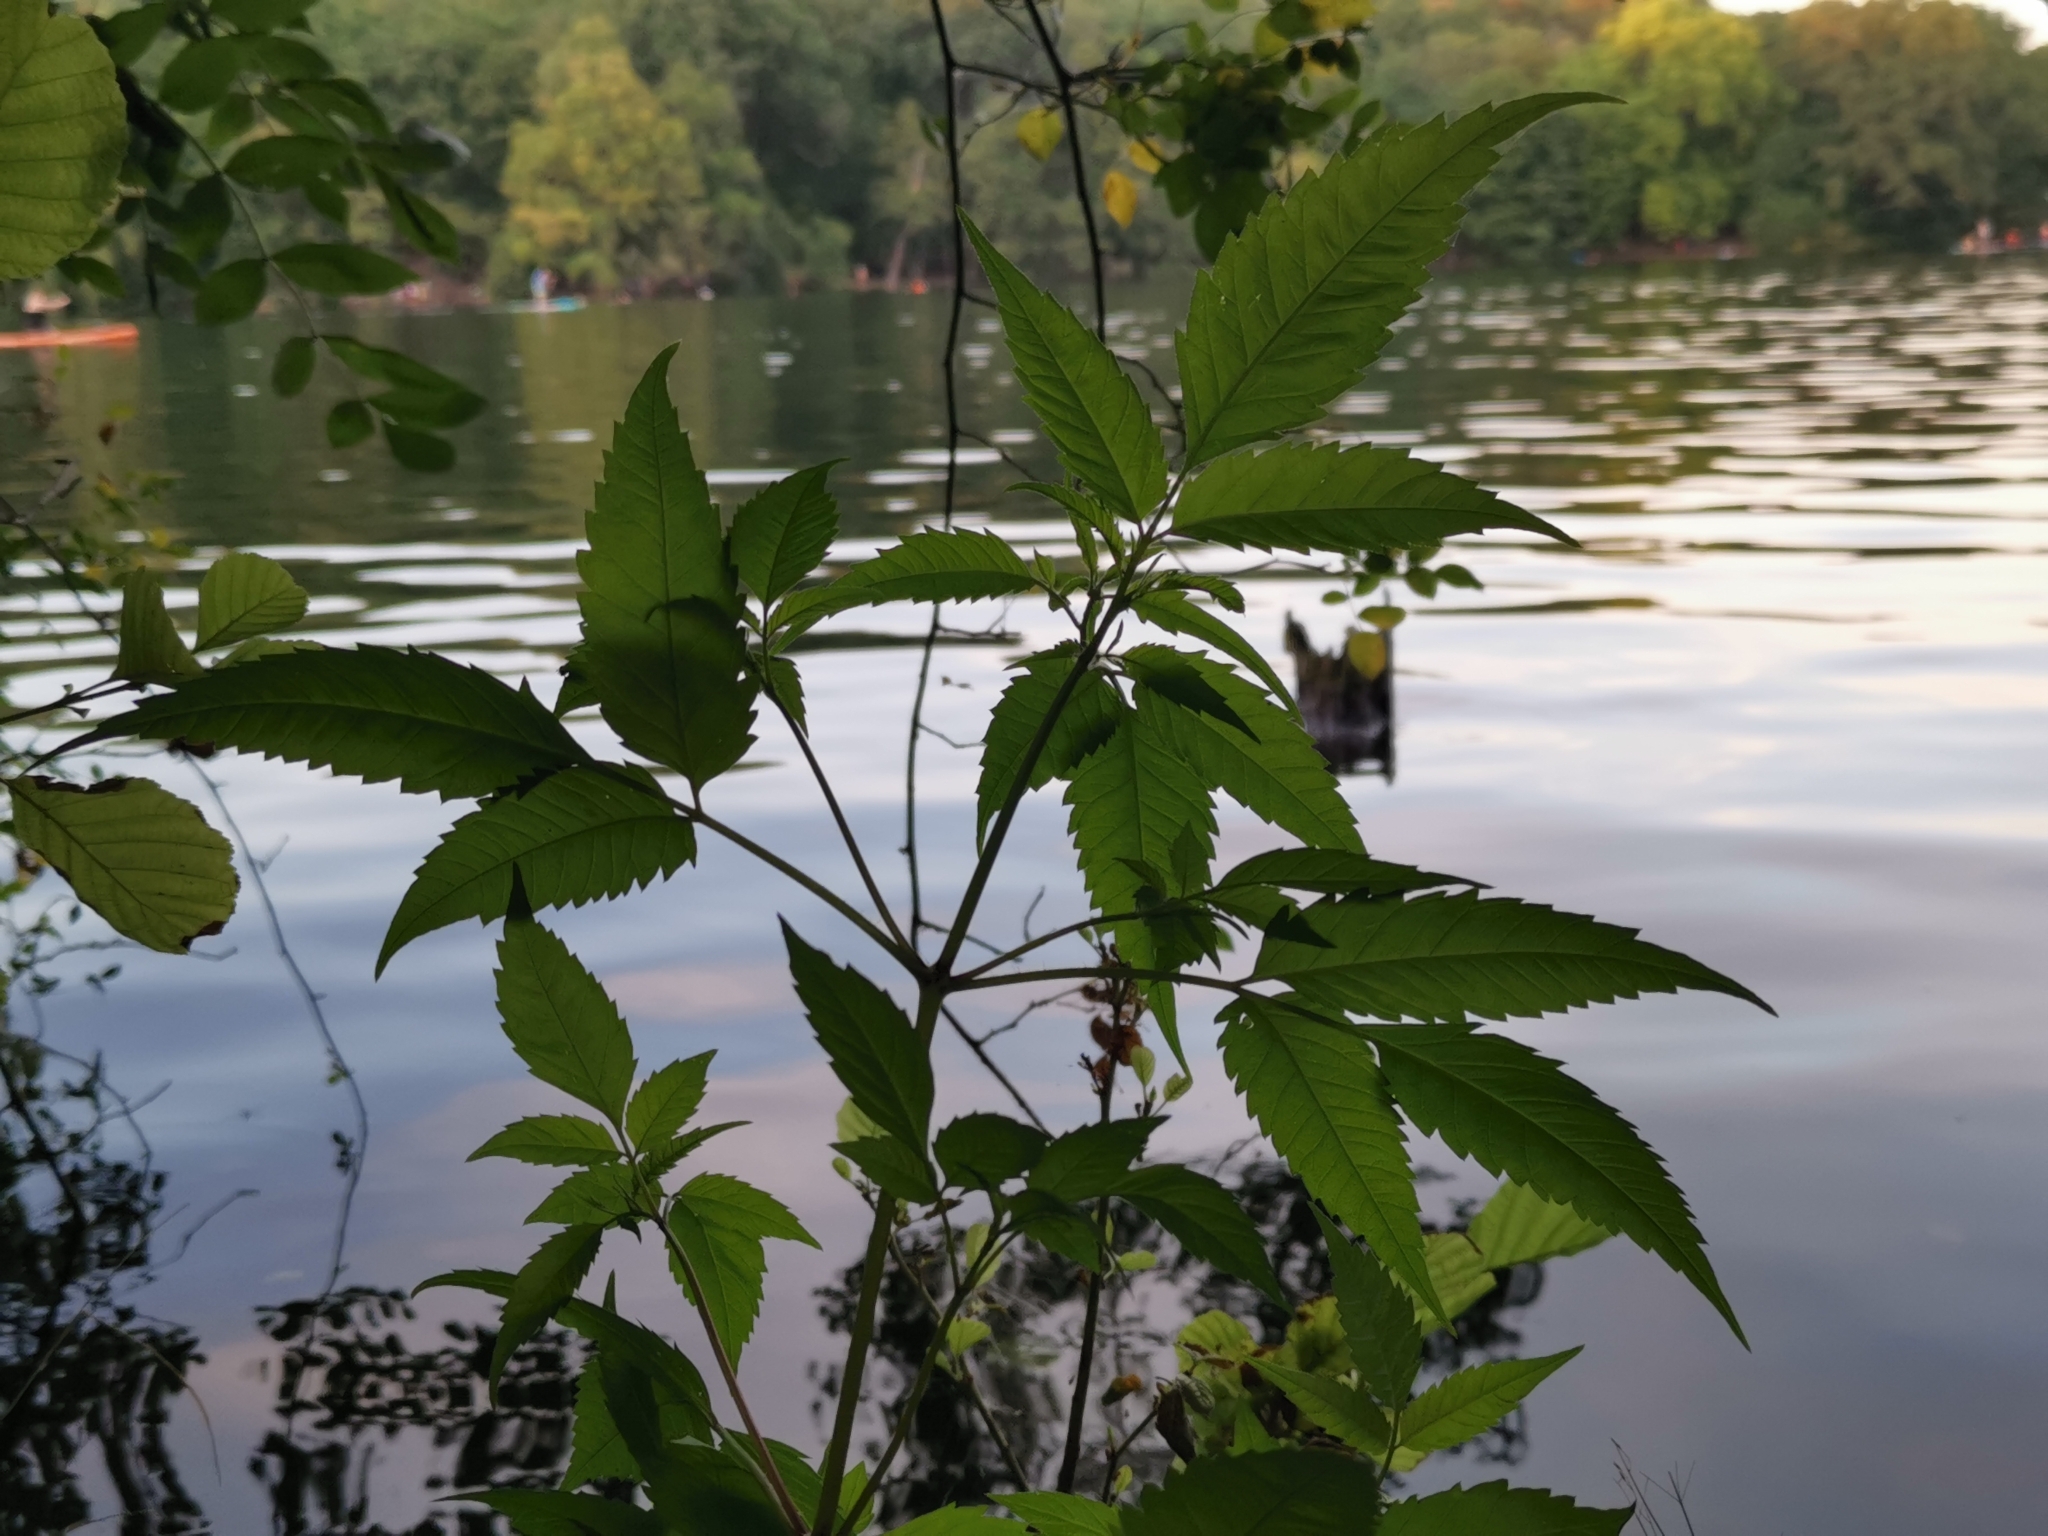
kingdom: Plantae
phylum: Tracheophyta
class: Magnoliopsida
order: Asterales
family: Asteraceae
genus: Bidens
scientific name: Bidens frondosa
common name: Beggarticks
